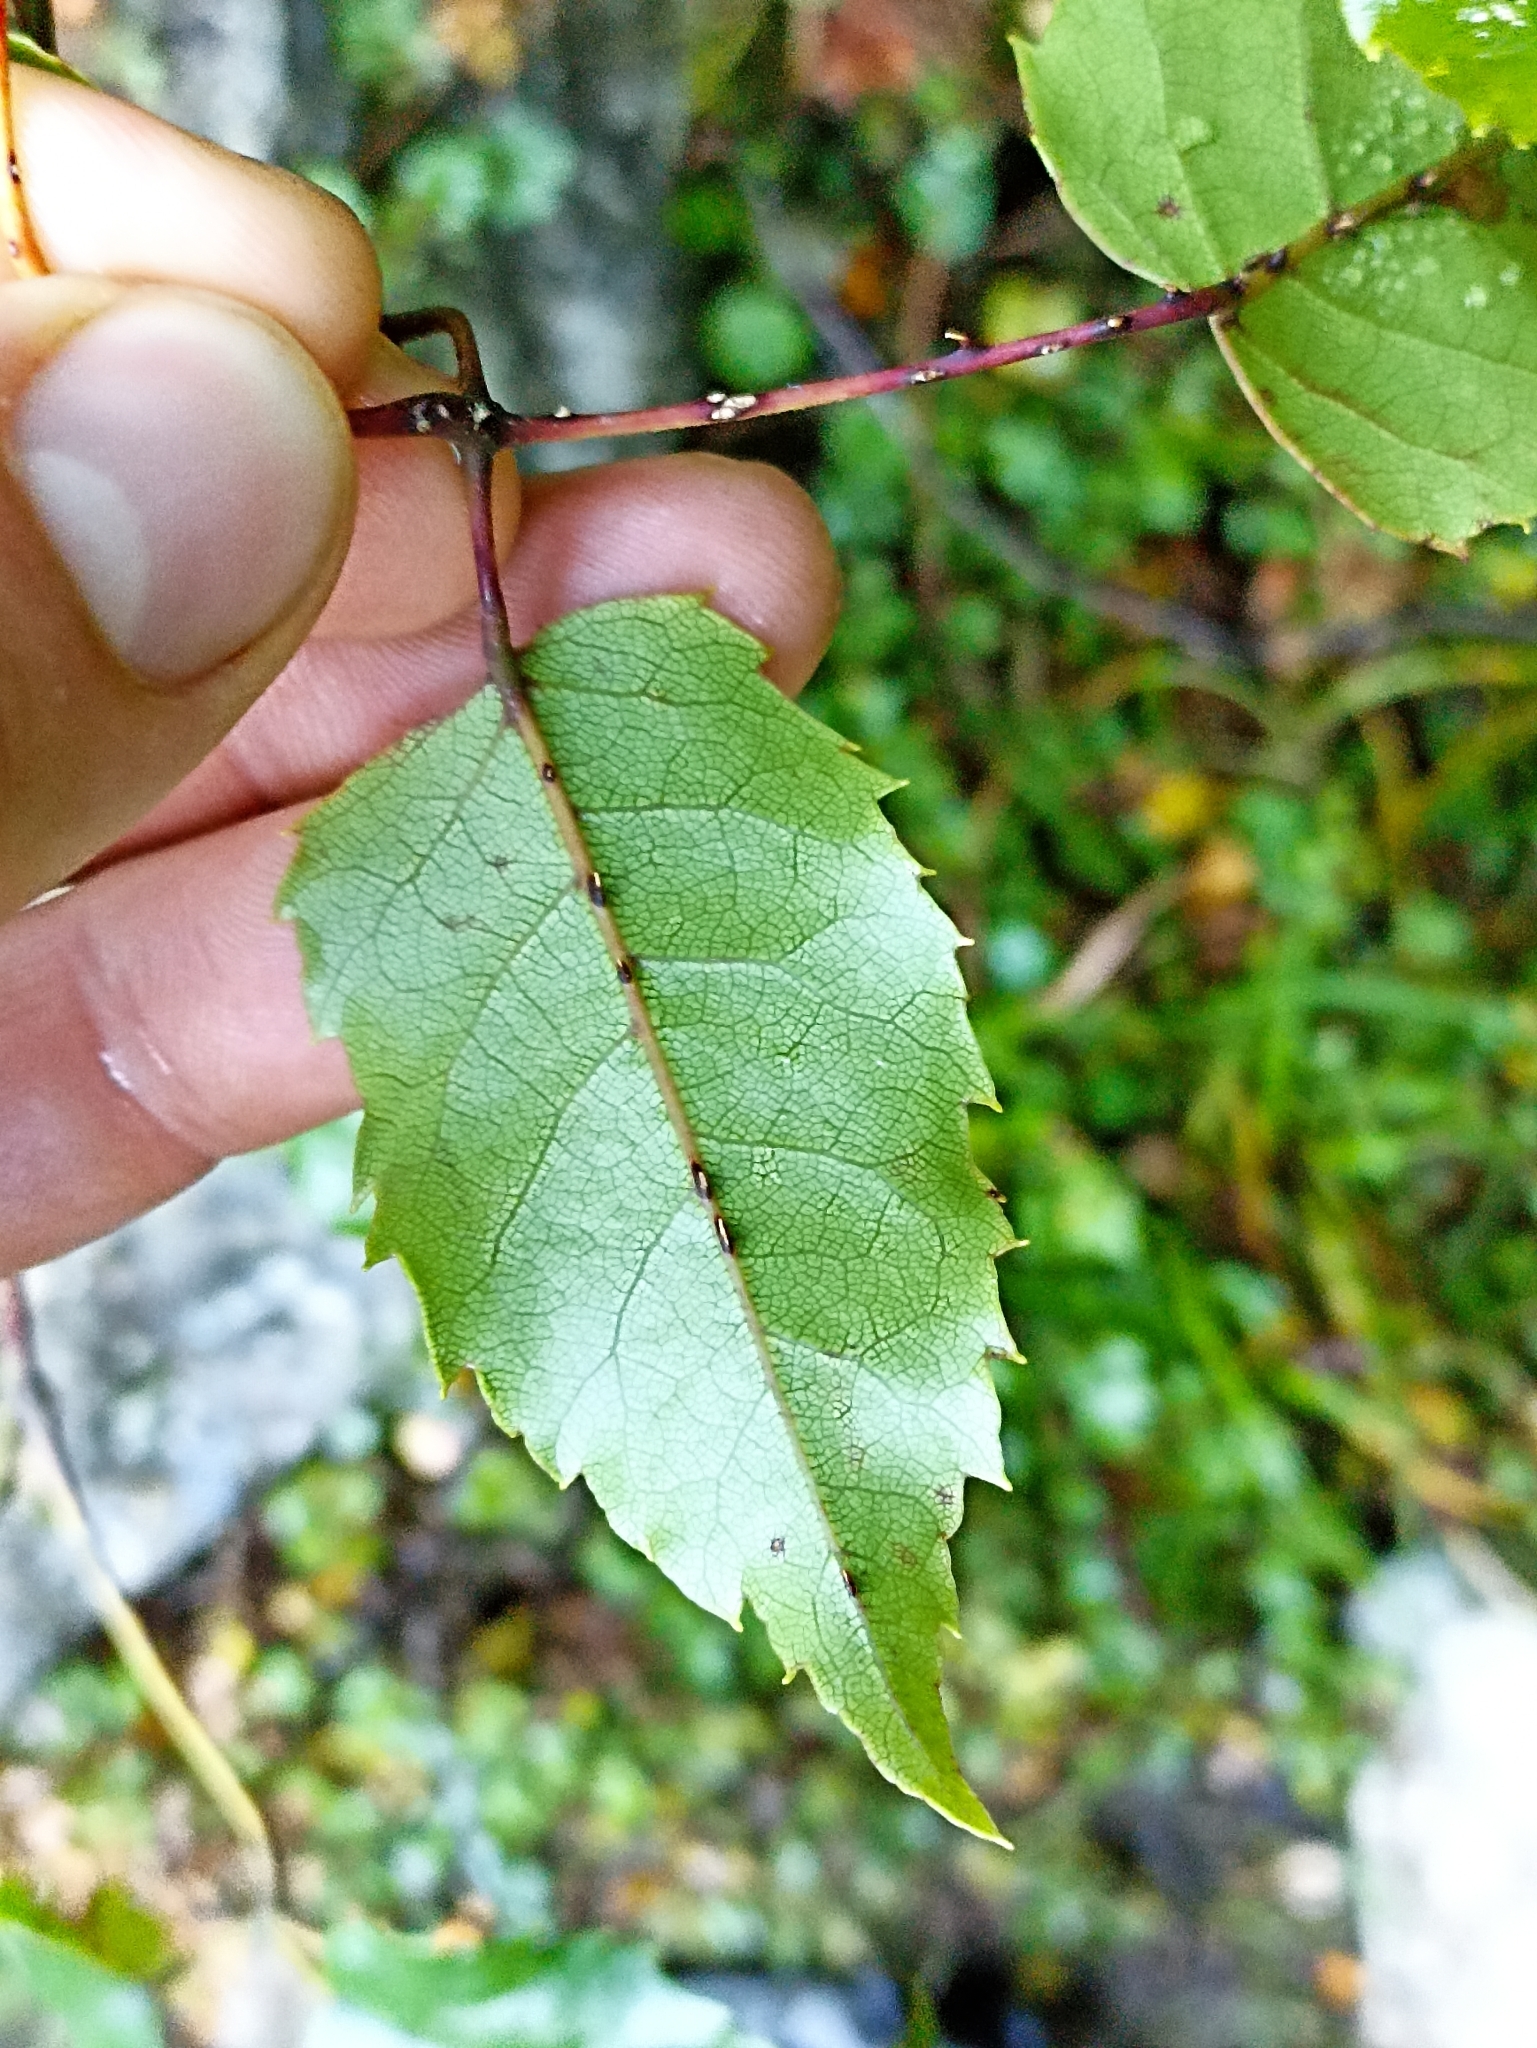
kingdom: Plantae
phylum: Tracheophyta
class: Magnoliopsida
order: Rosales
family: Rosaceae
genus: Rubus
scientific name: Rubus cissoides
